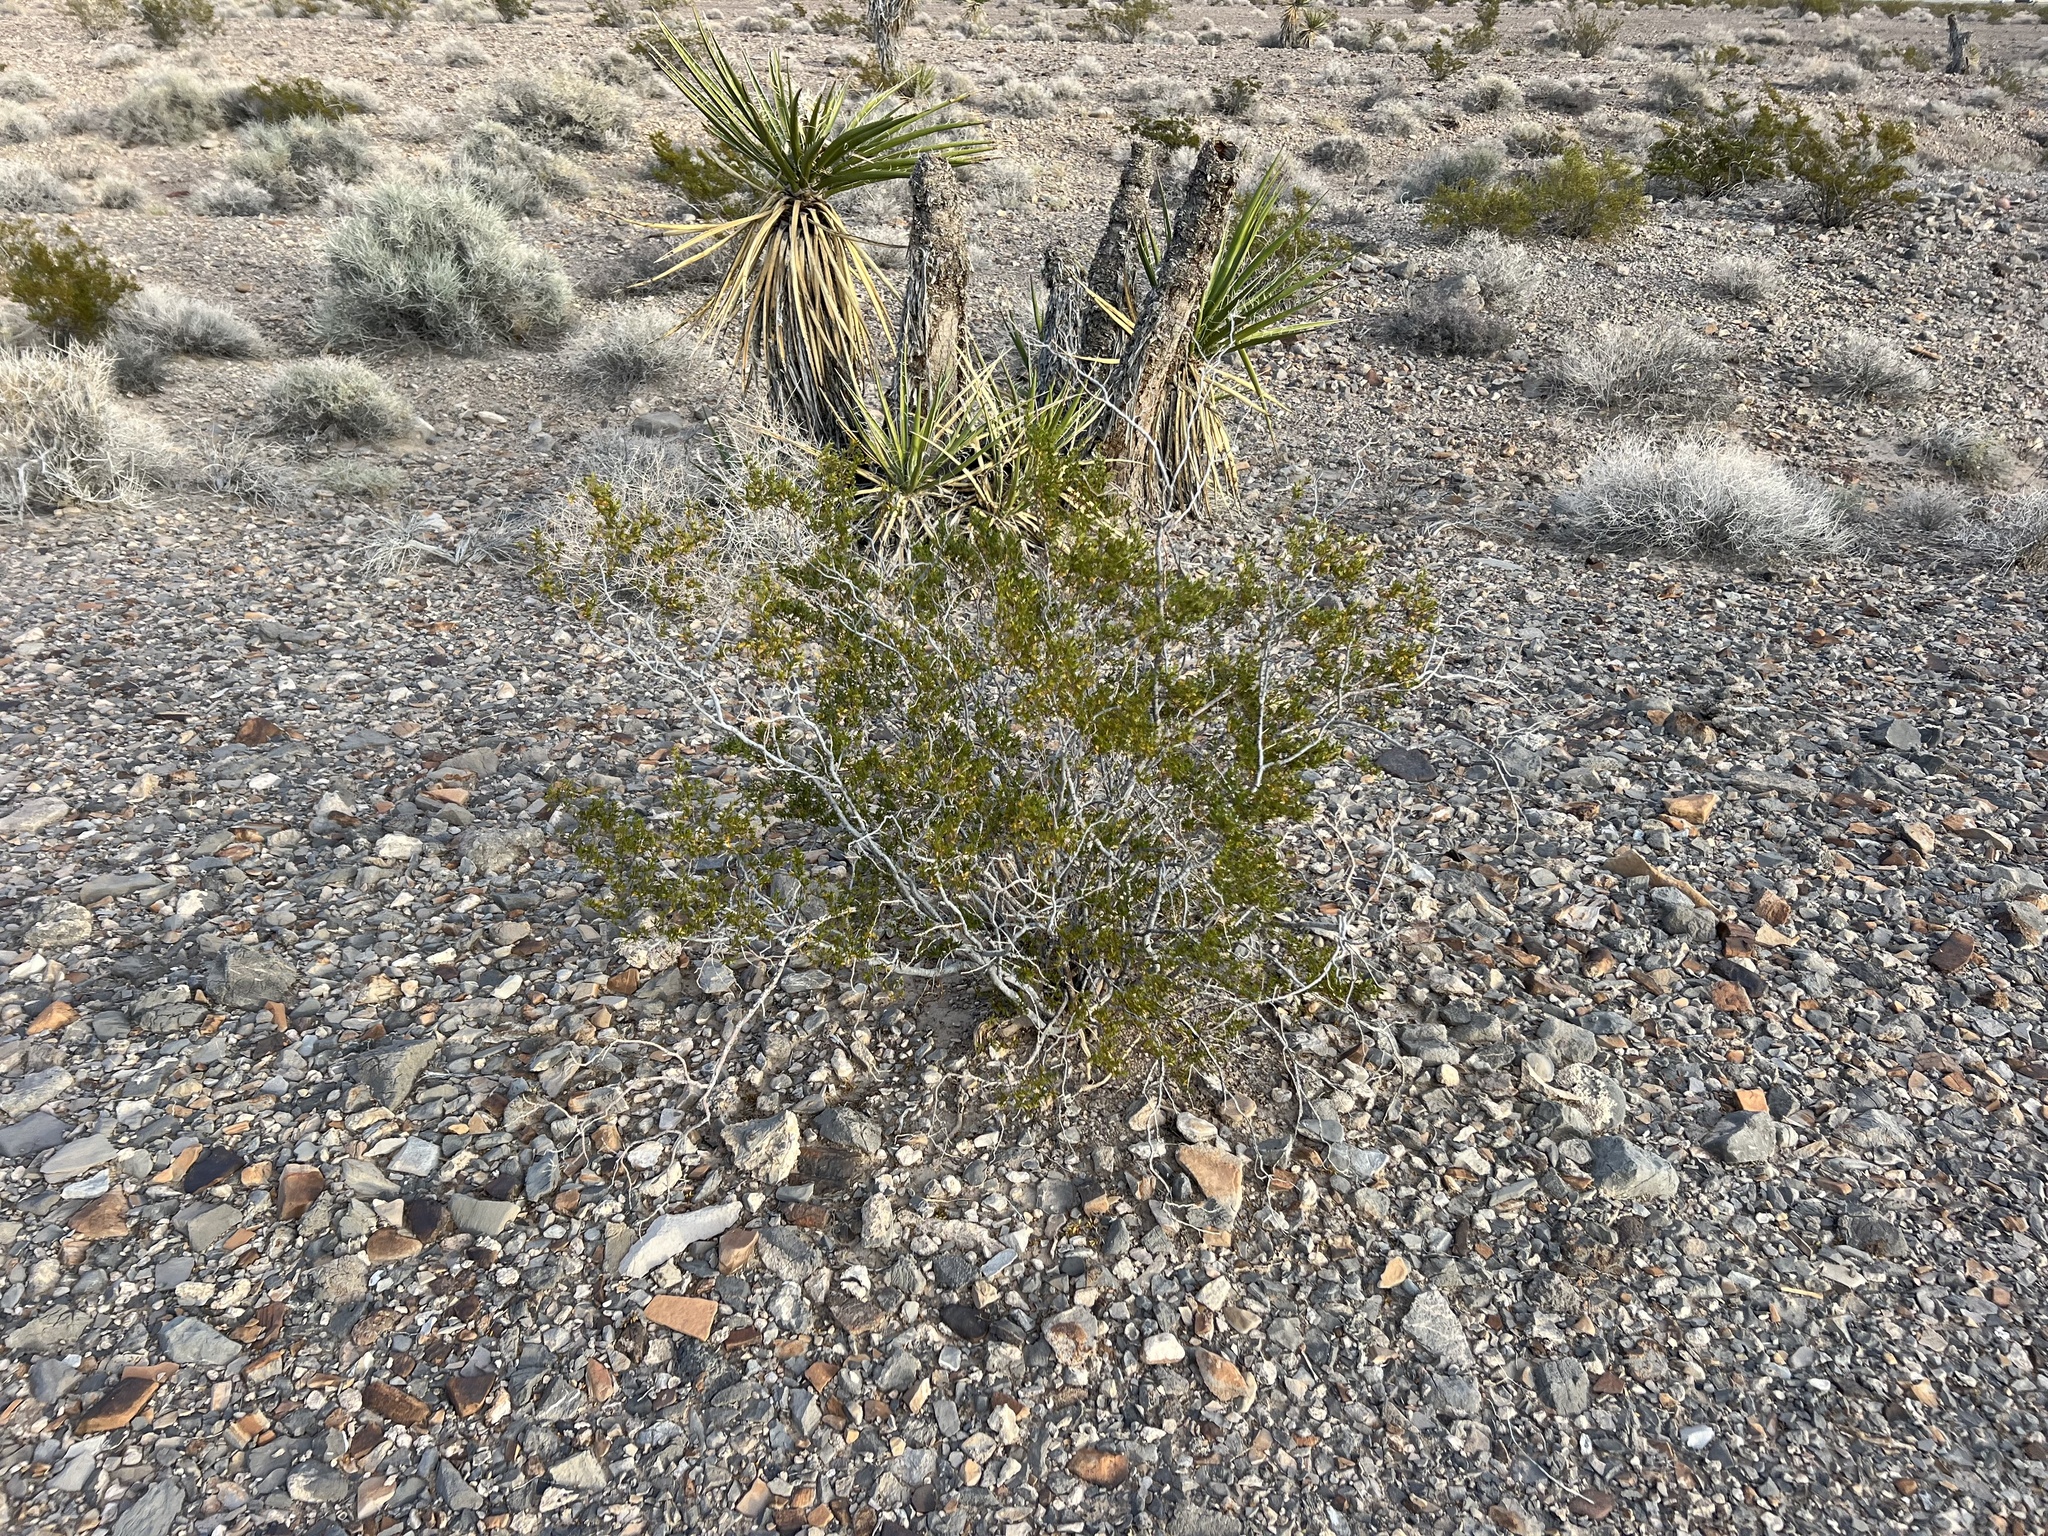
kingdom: Plantae
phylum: Tracheophyta
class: Magnoliopsida
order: Zygophyllales
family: Zygophyllaceae
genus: Larrea
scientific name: Larrea tridentata
